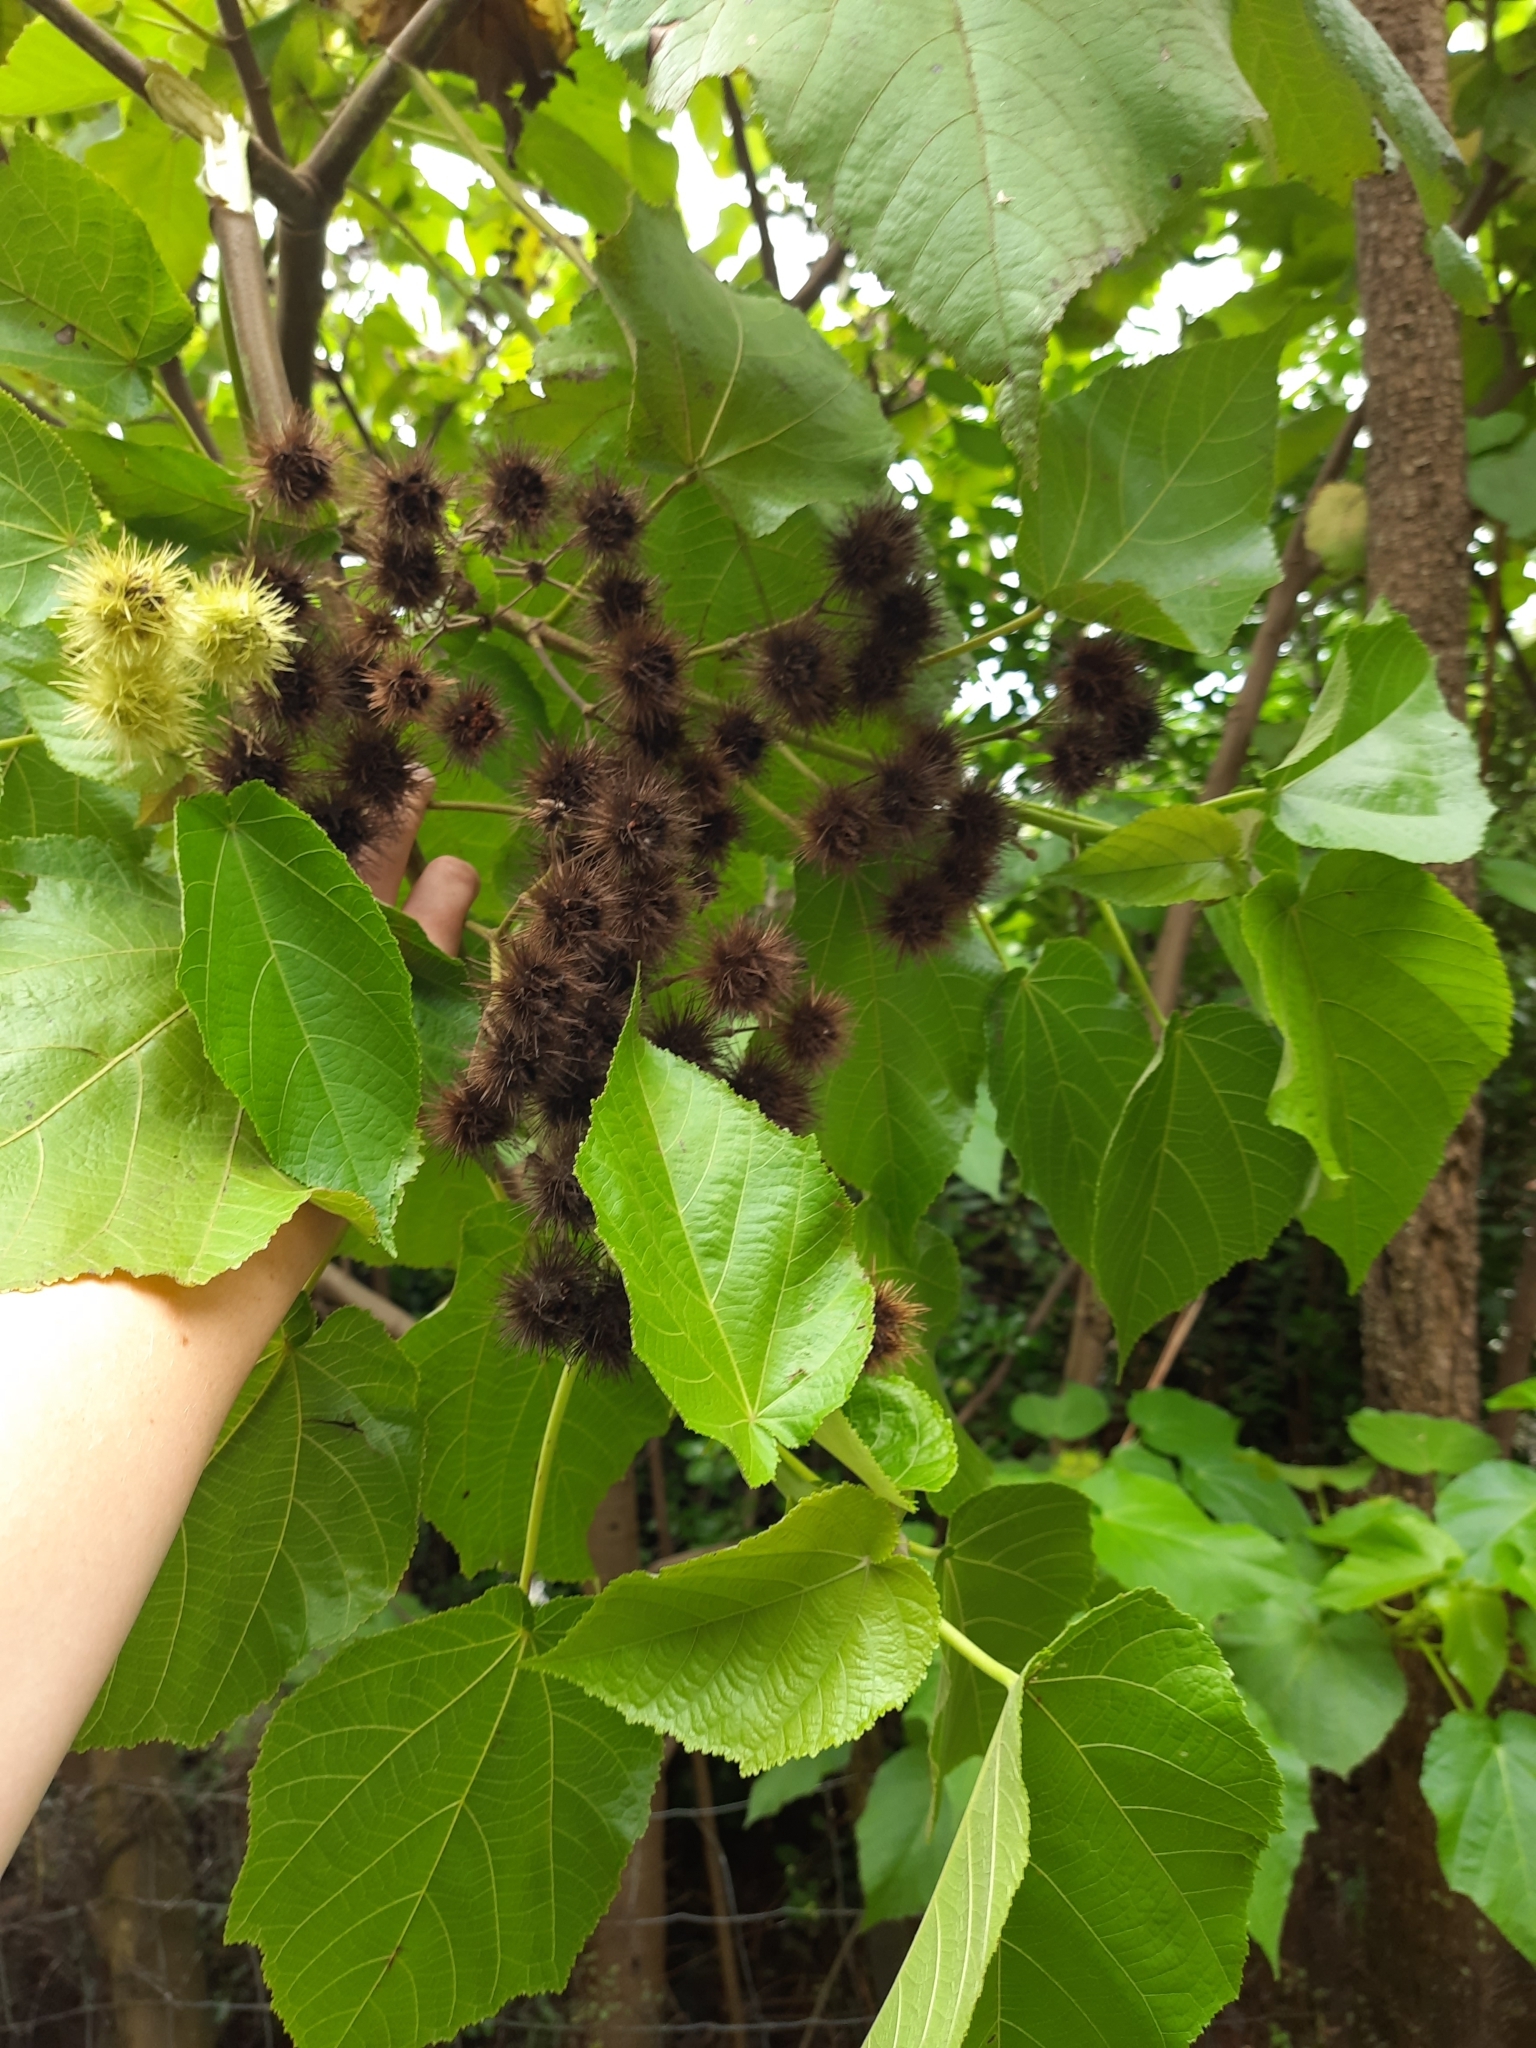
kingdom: Plantae
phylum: Tracheophyta
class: Magnoliopsida
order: Malvales
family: Malvaceae
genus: Entelea
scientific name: Entelea arborescens
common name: New zealand-mulberry
